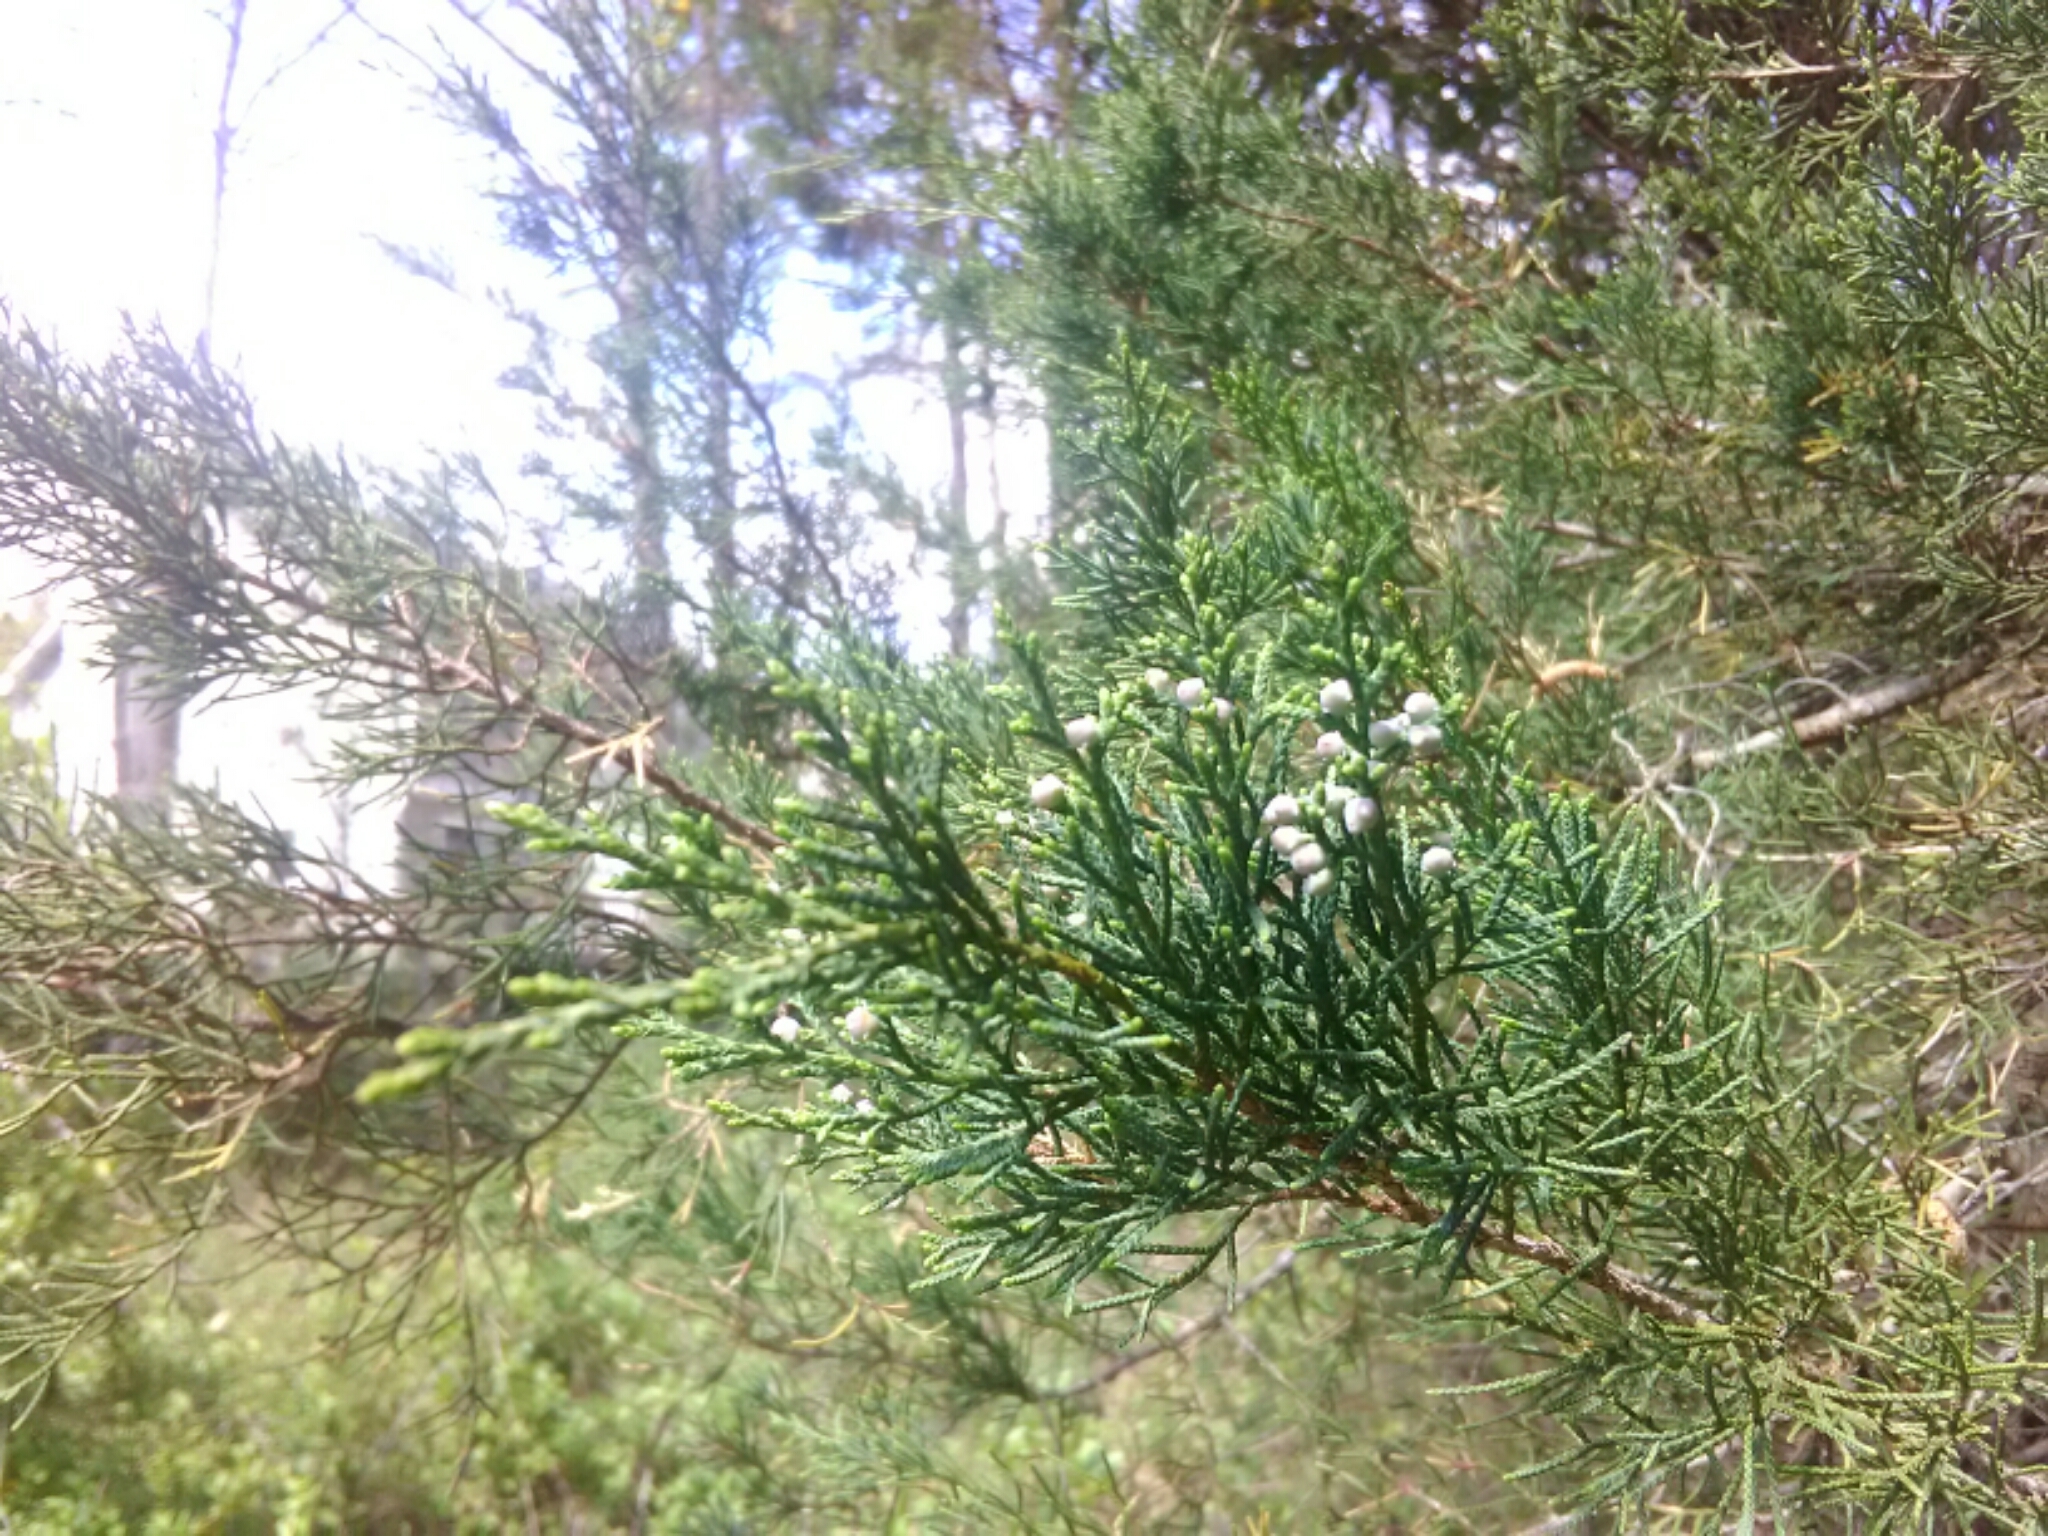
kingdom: Plantae
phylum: Tracheophyta
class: Pinopsida
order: Pinales
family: Cupressaceae
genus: Juniperus
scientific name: Juniperus virginiana
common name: Red juniper
